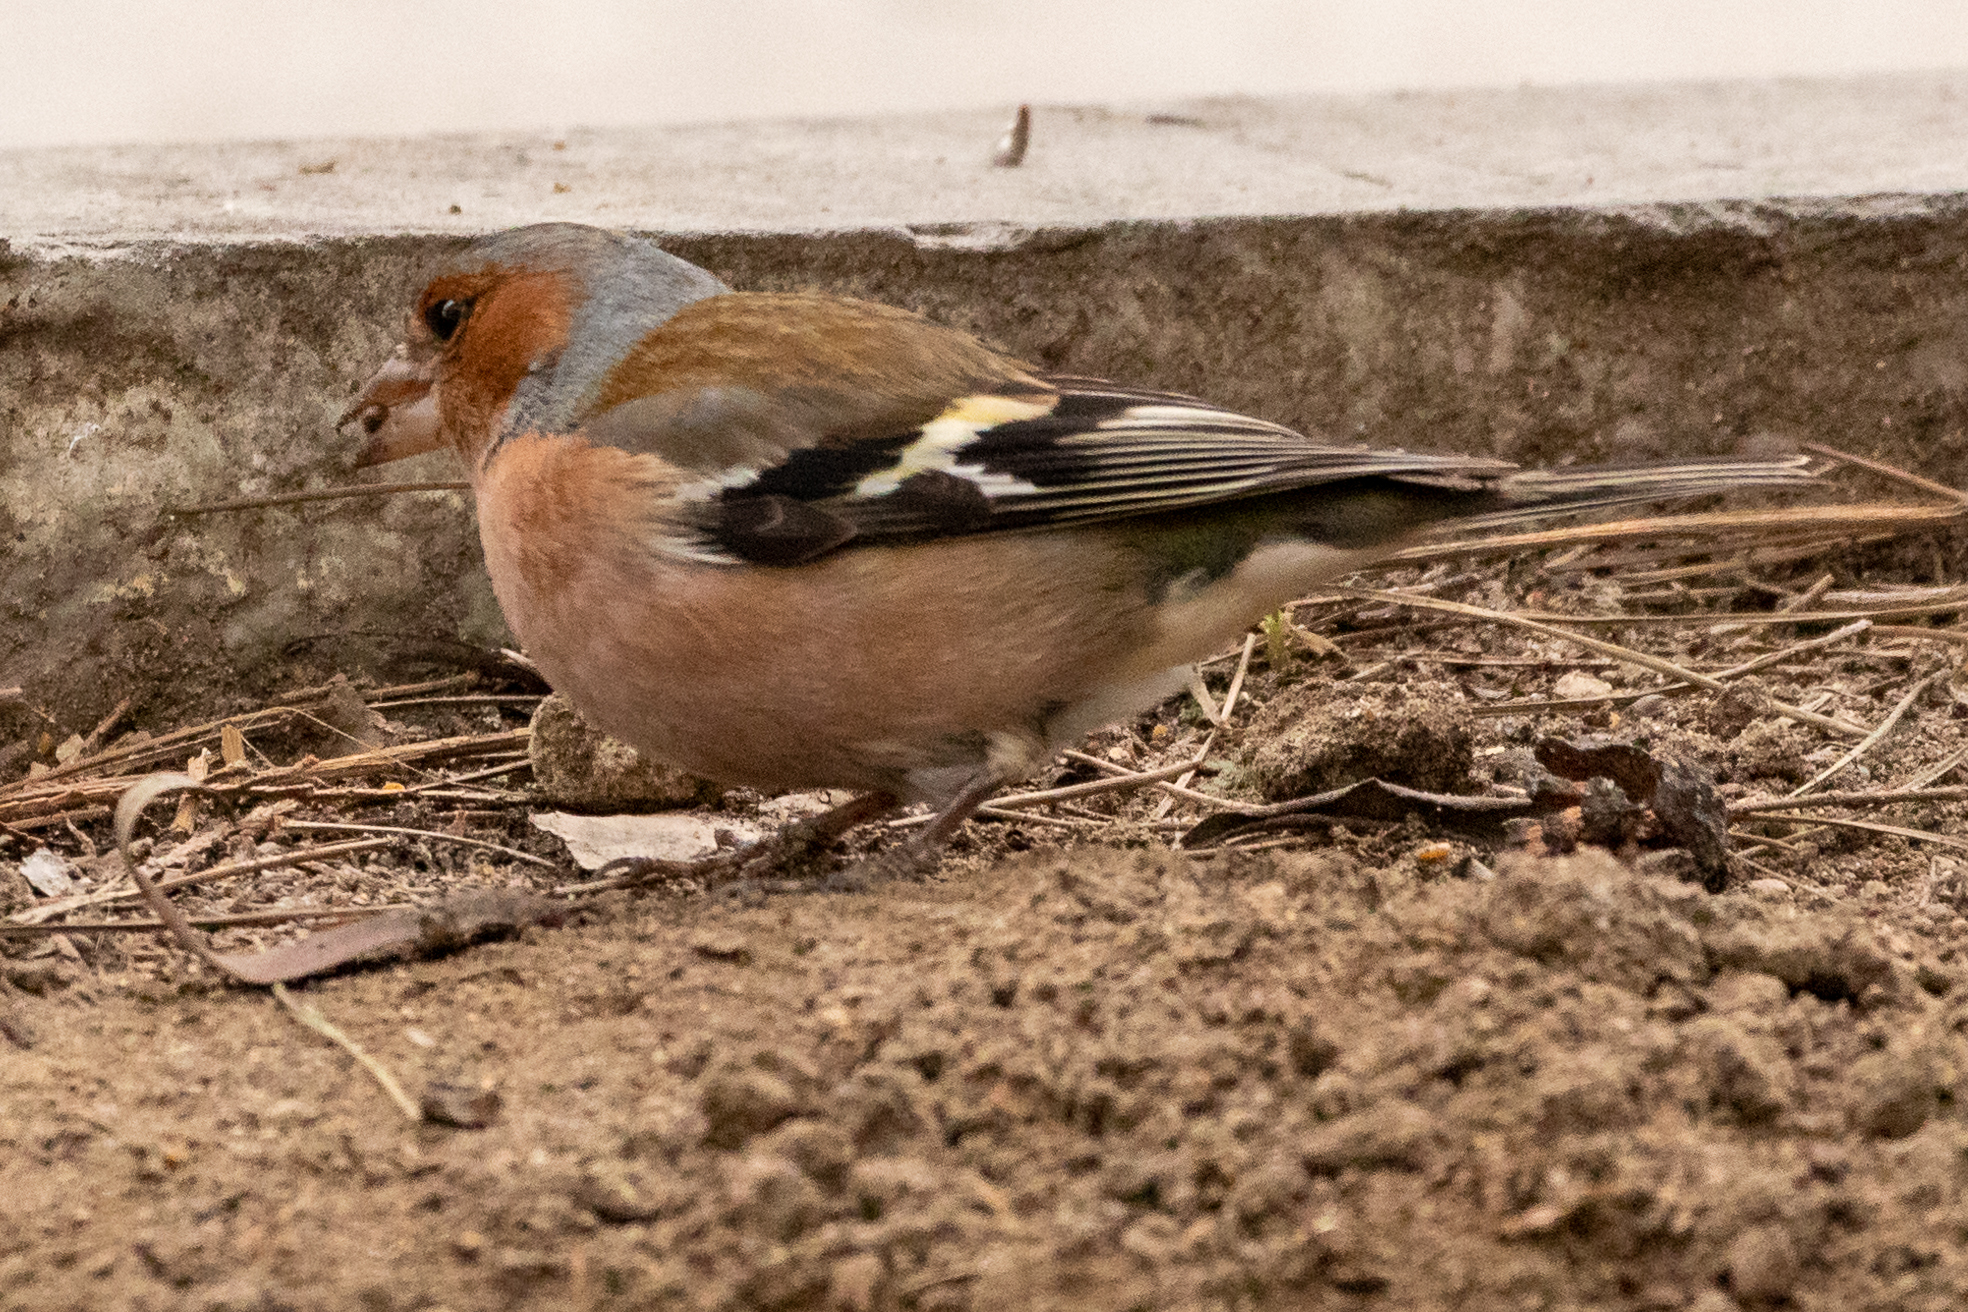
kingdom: Animalia
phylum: Chordata
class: Aves
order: Passeriformes
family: Fringillidae
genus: Fringilla
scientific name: Fringilla coelebs
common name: Common chaffinch
